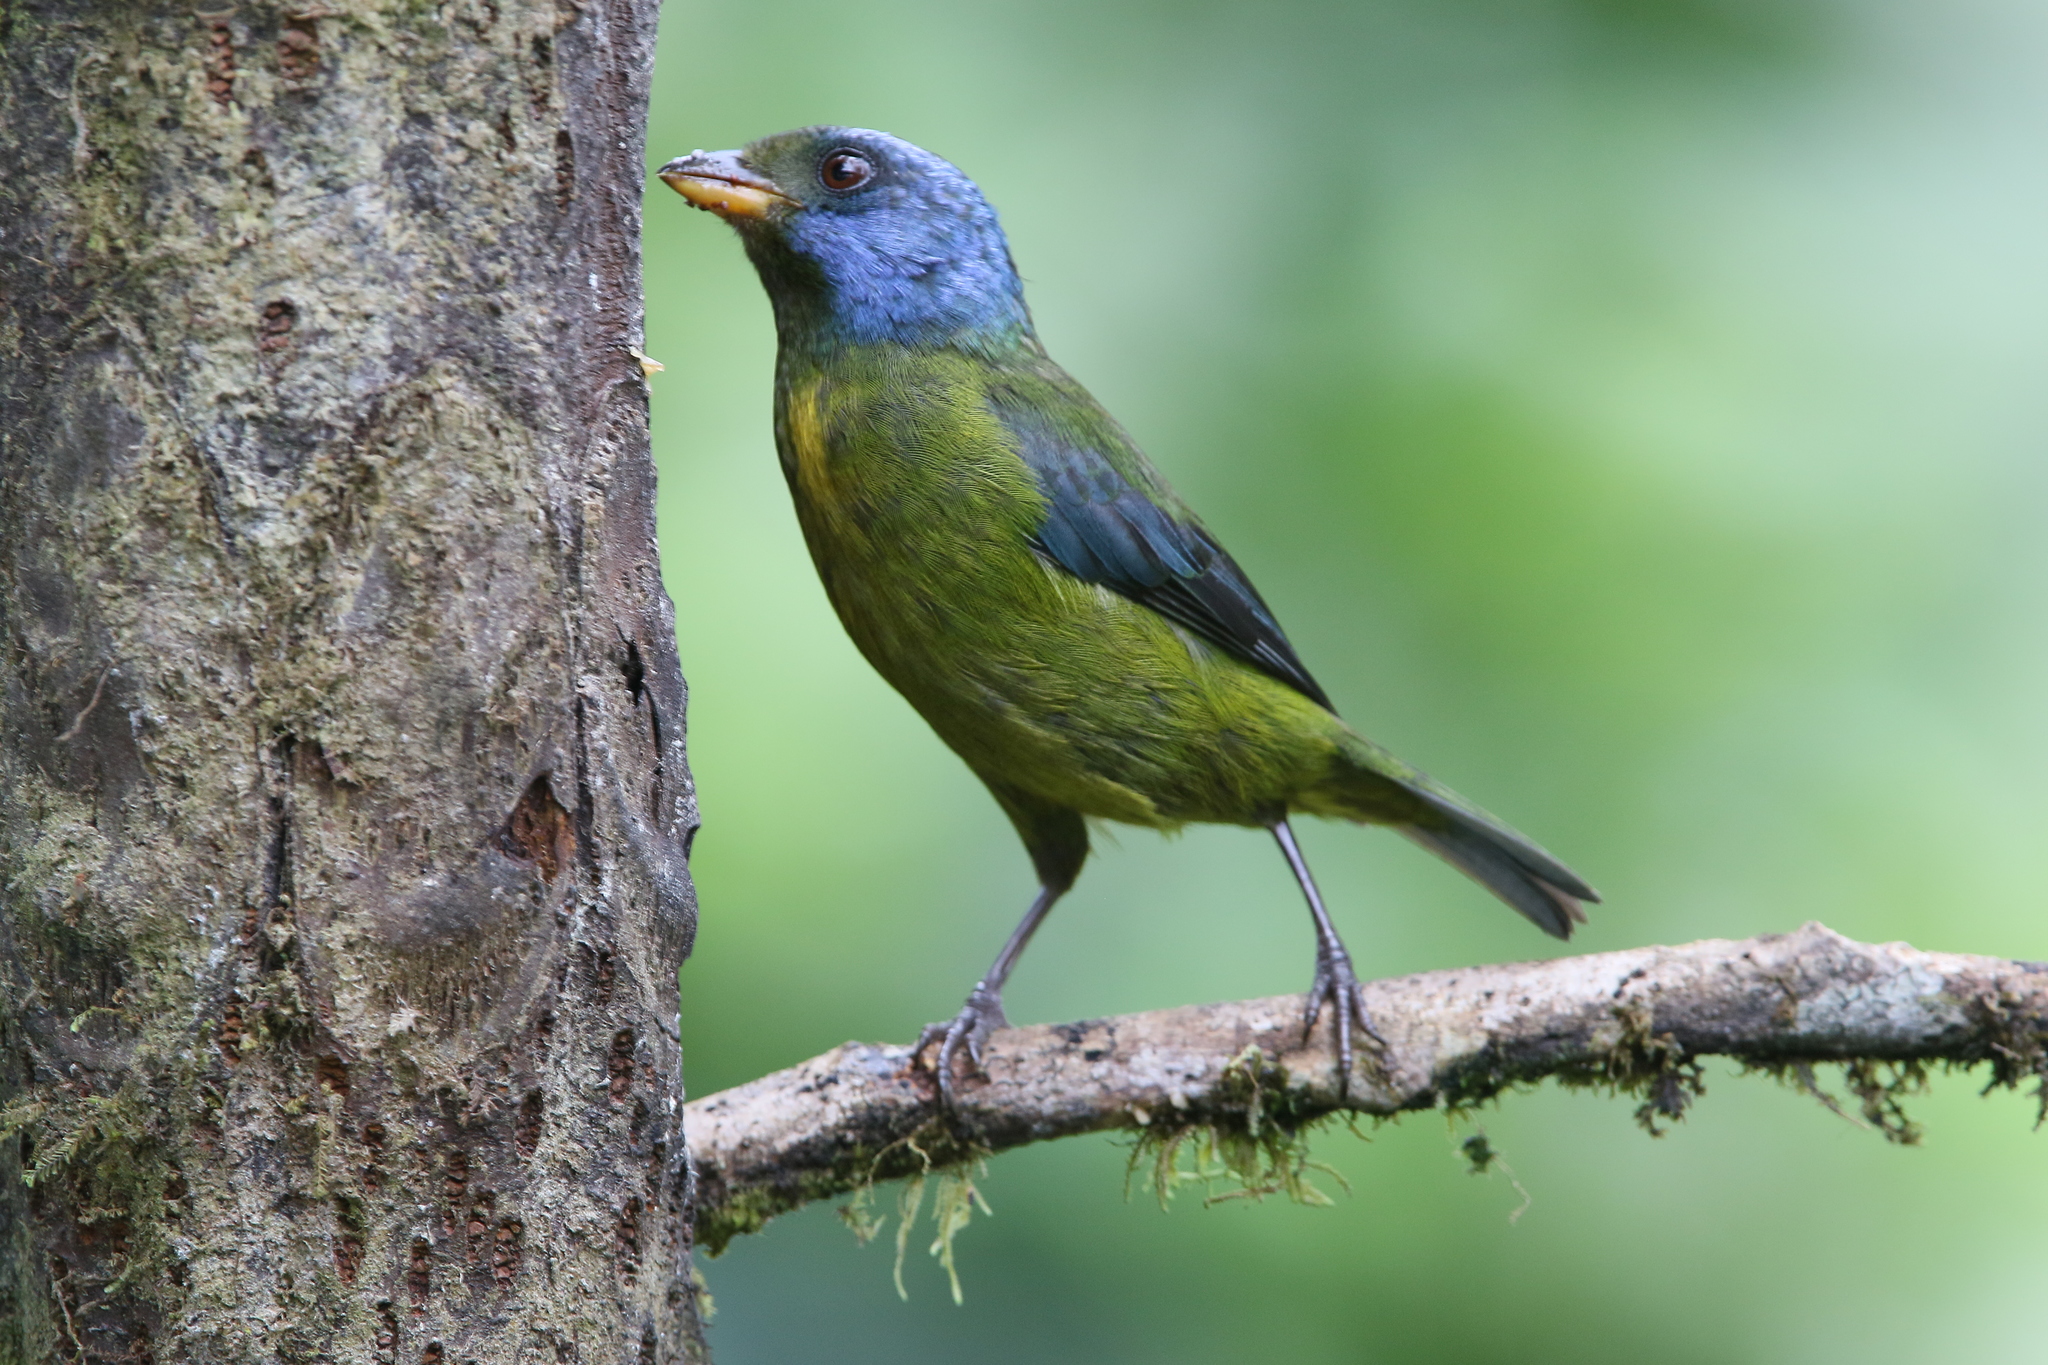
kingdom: Animalia
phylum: Chordata
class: Aves
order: Passeriformes
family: Thraupidae
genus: Bangsia
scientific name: Bangsia edwardsi
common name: Moss-backed tanager
